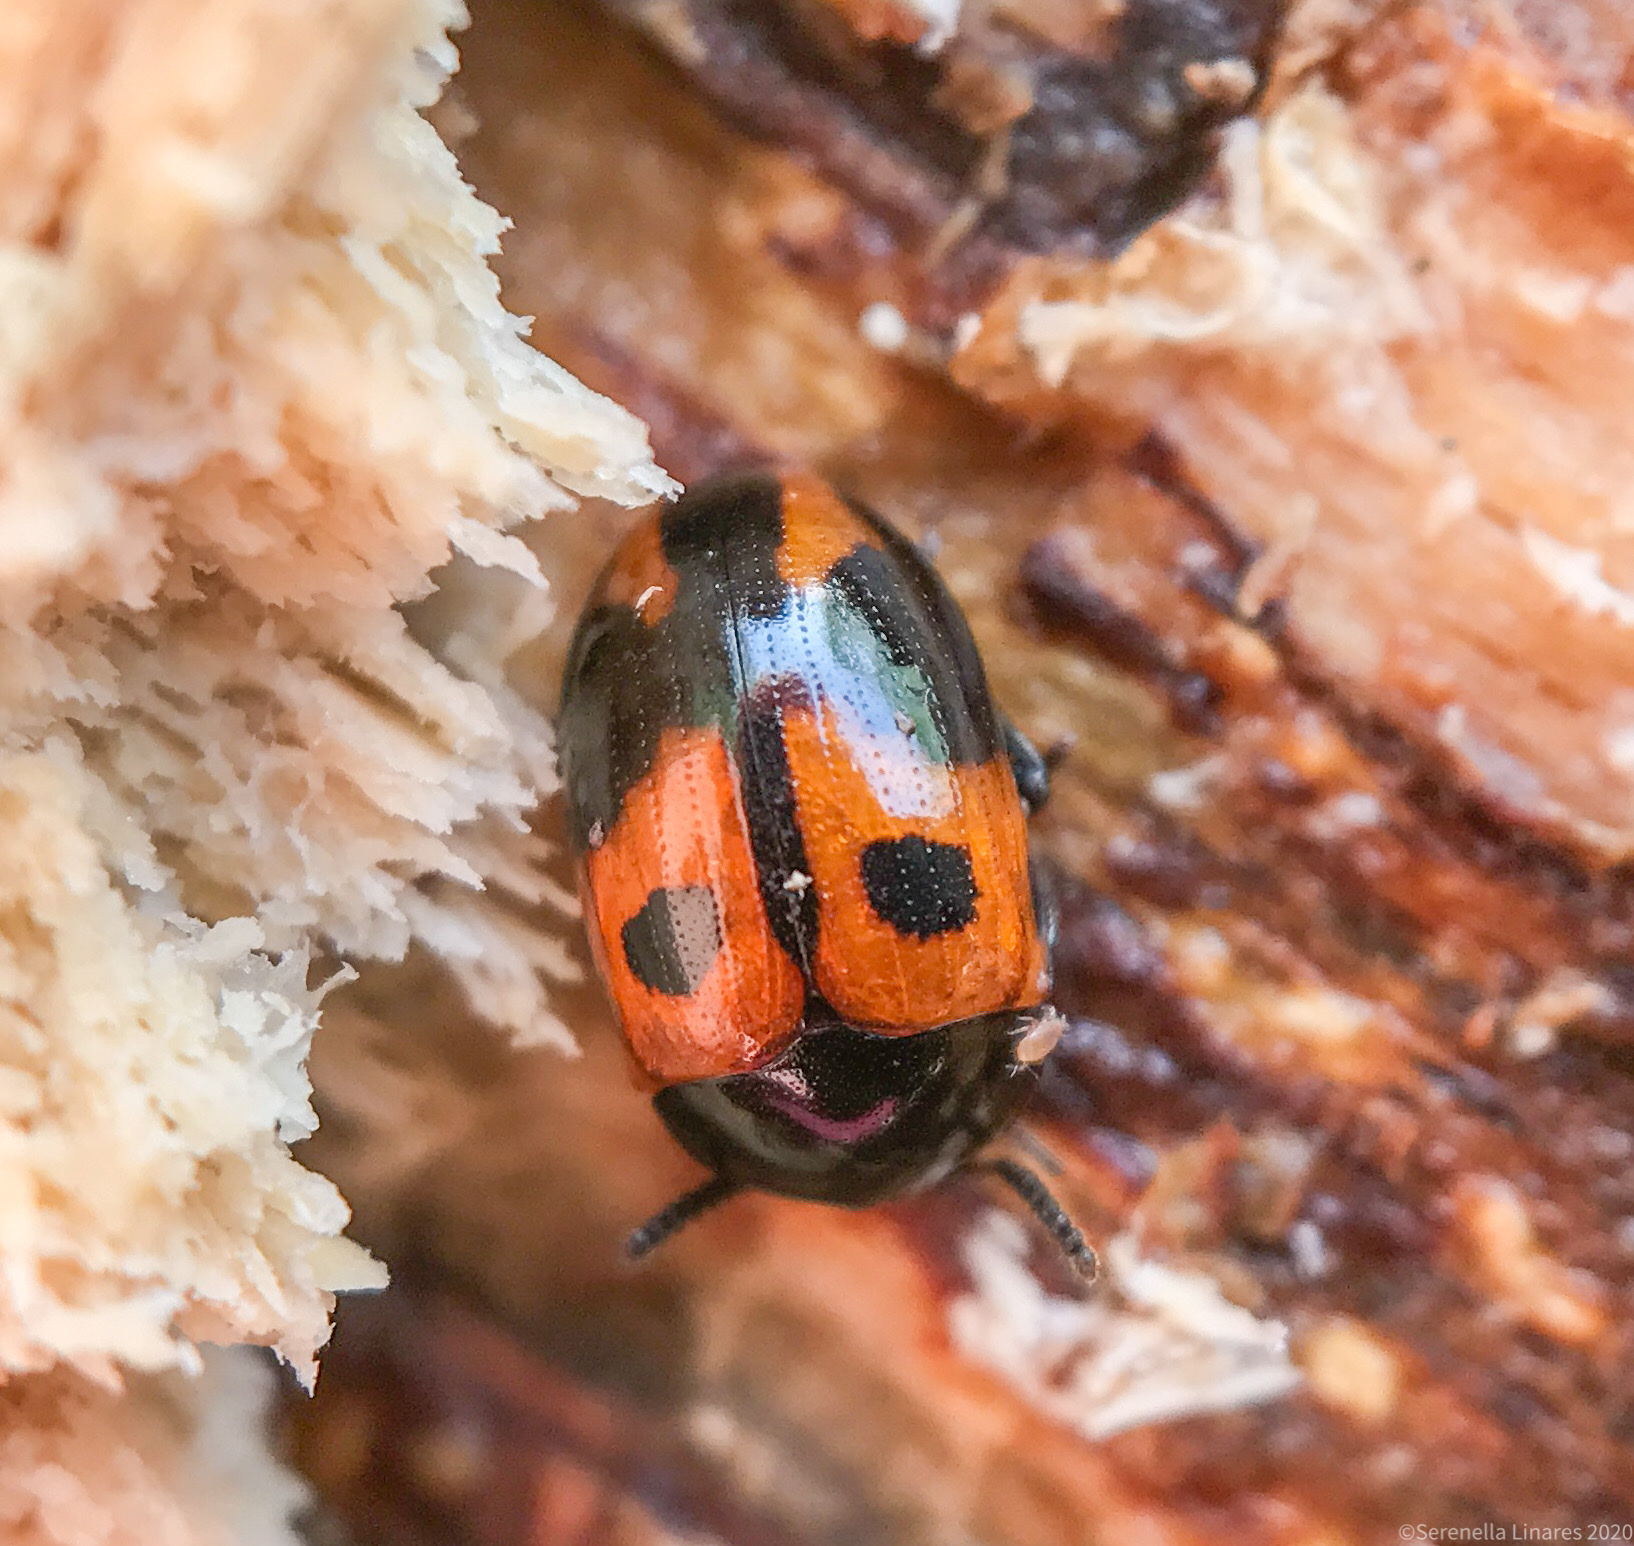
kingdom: Animalia
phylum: Arthropoda
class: Insecta
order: Coleoptera
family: Tenebrionidae
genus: Diaperis
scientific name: Diaperis maculata
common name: Darkling beetle
